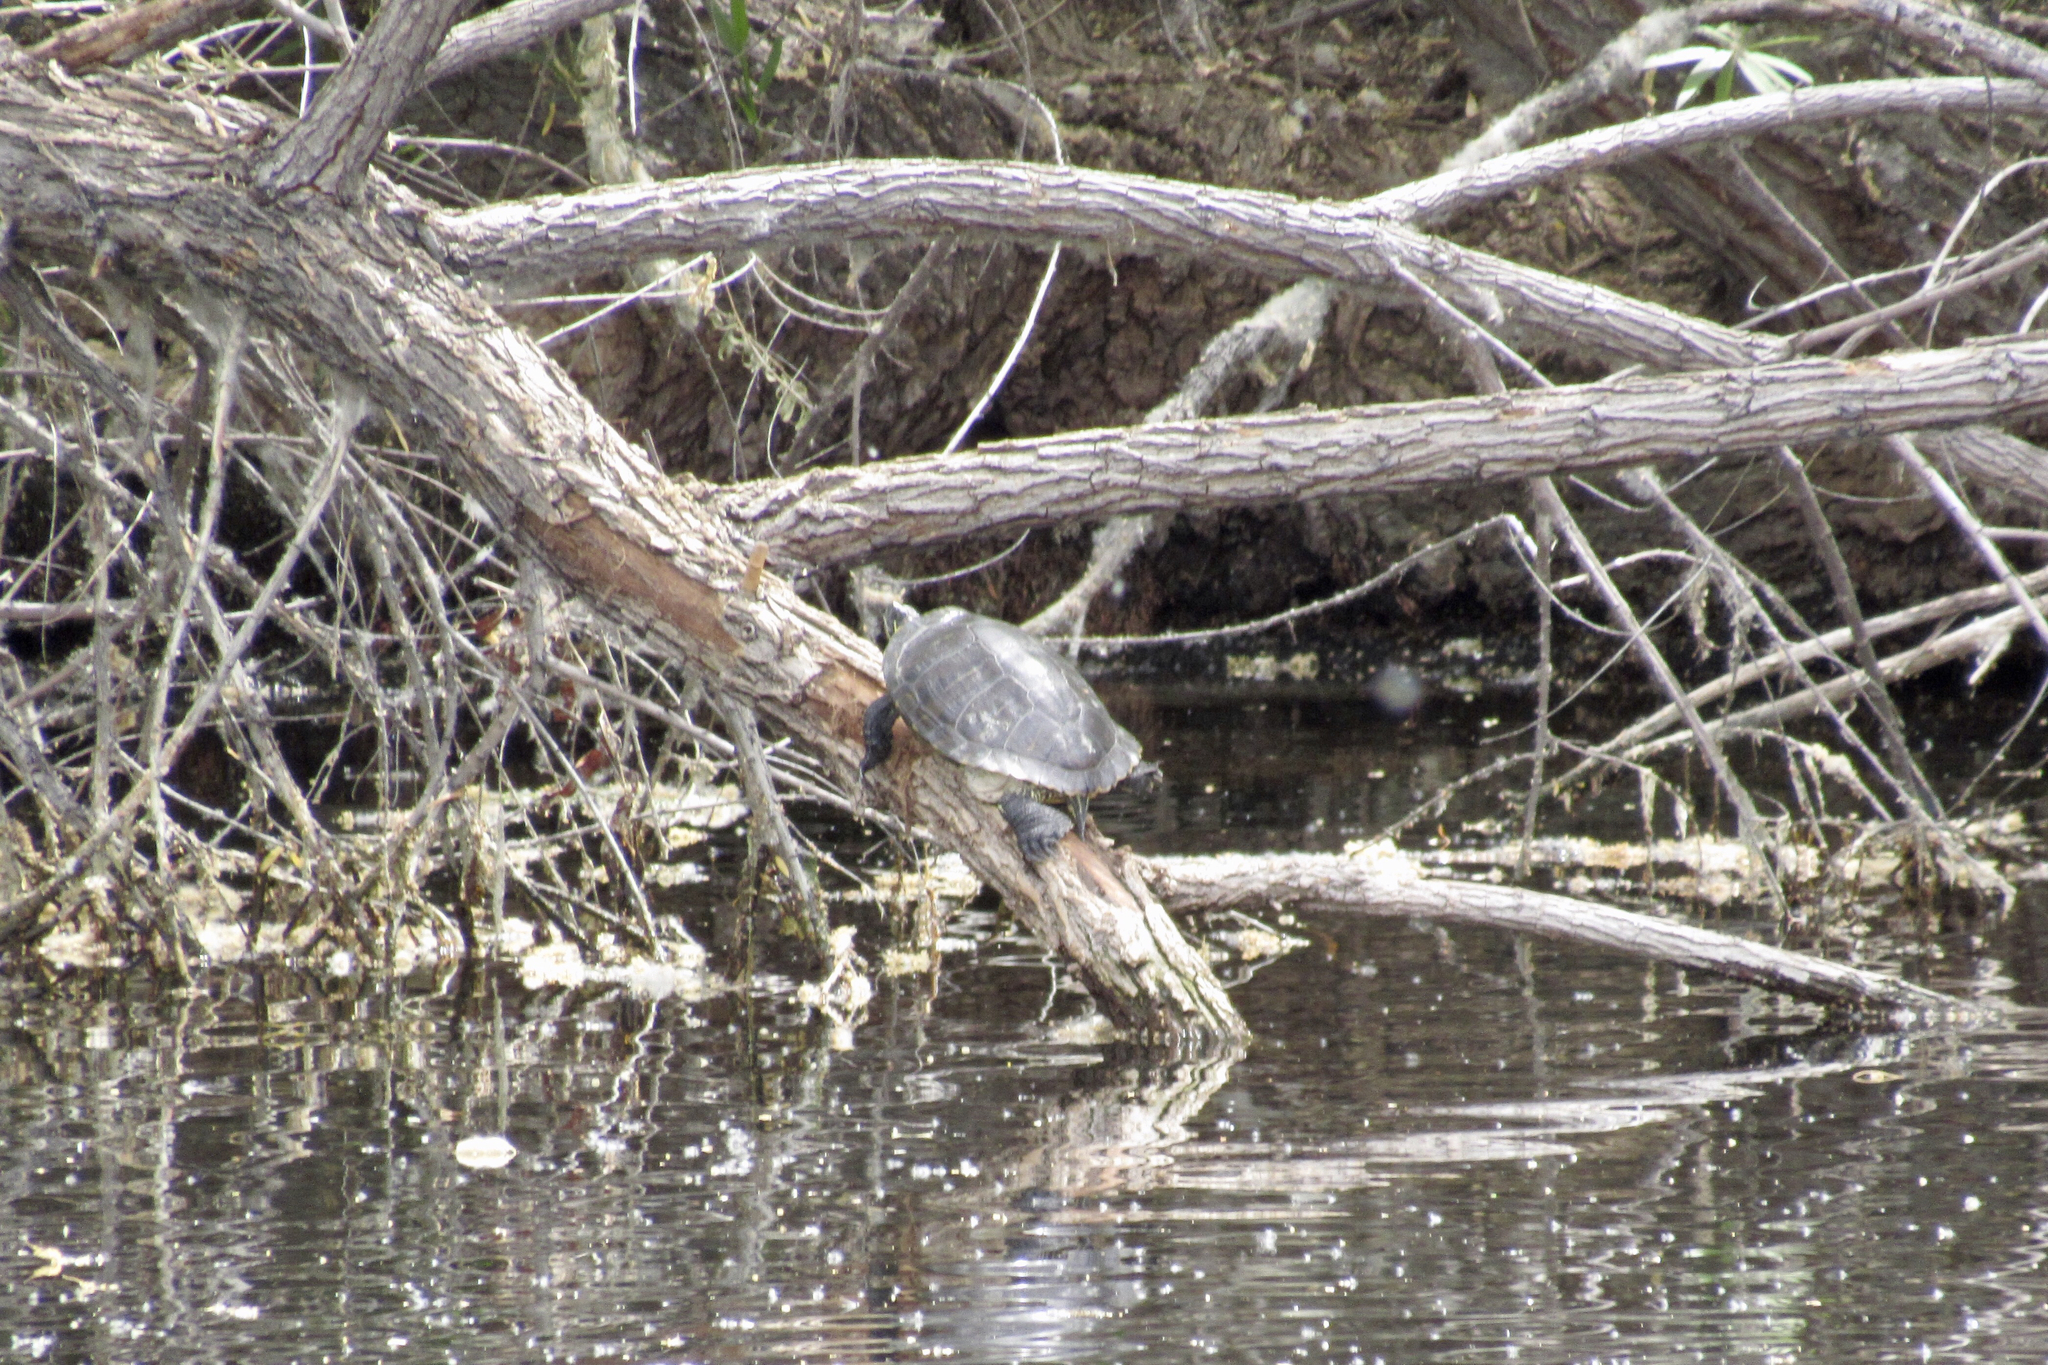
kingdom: Animalia
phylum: Chordata
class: Testudines
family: Emydidae
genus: Trachemys
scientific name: Trachemys scripta
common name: Slider
